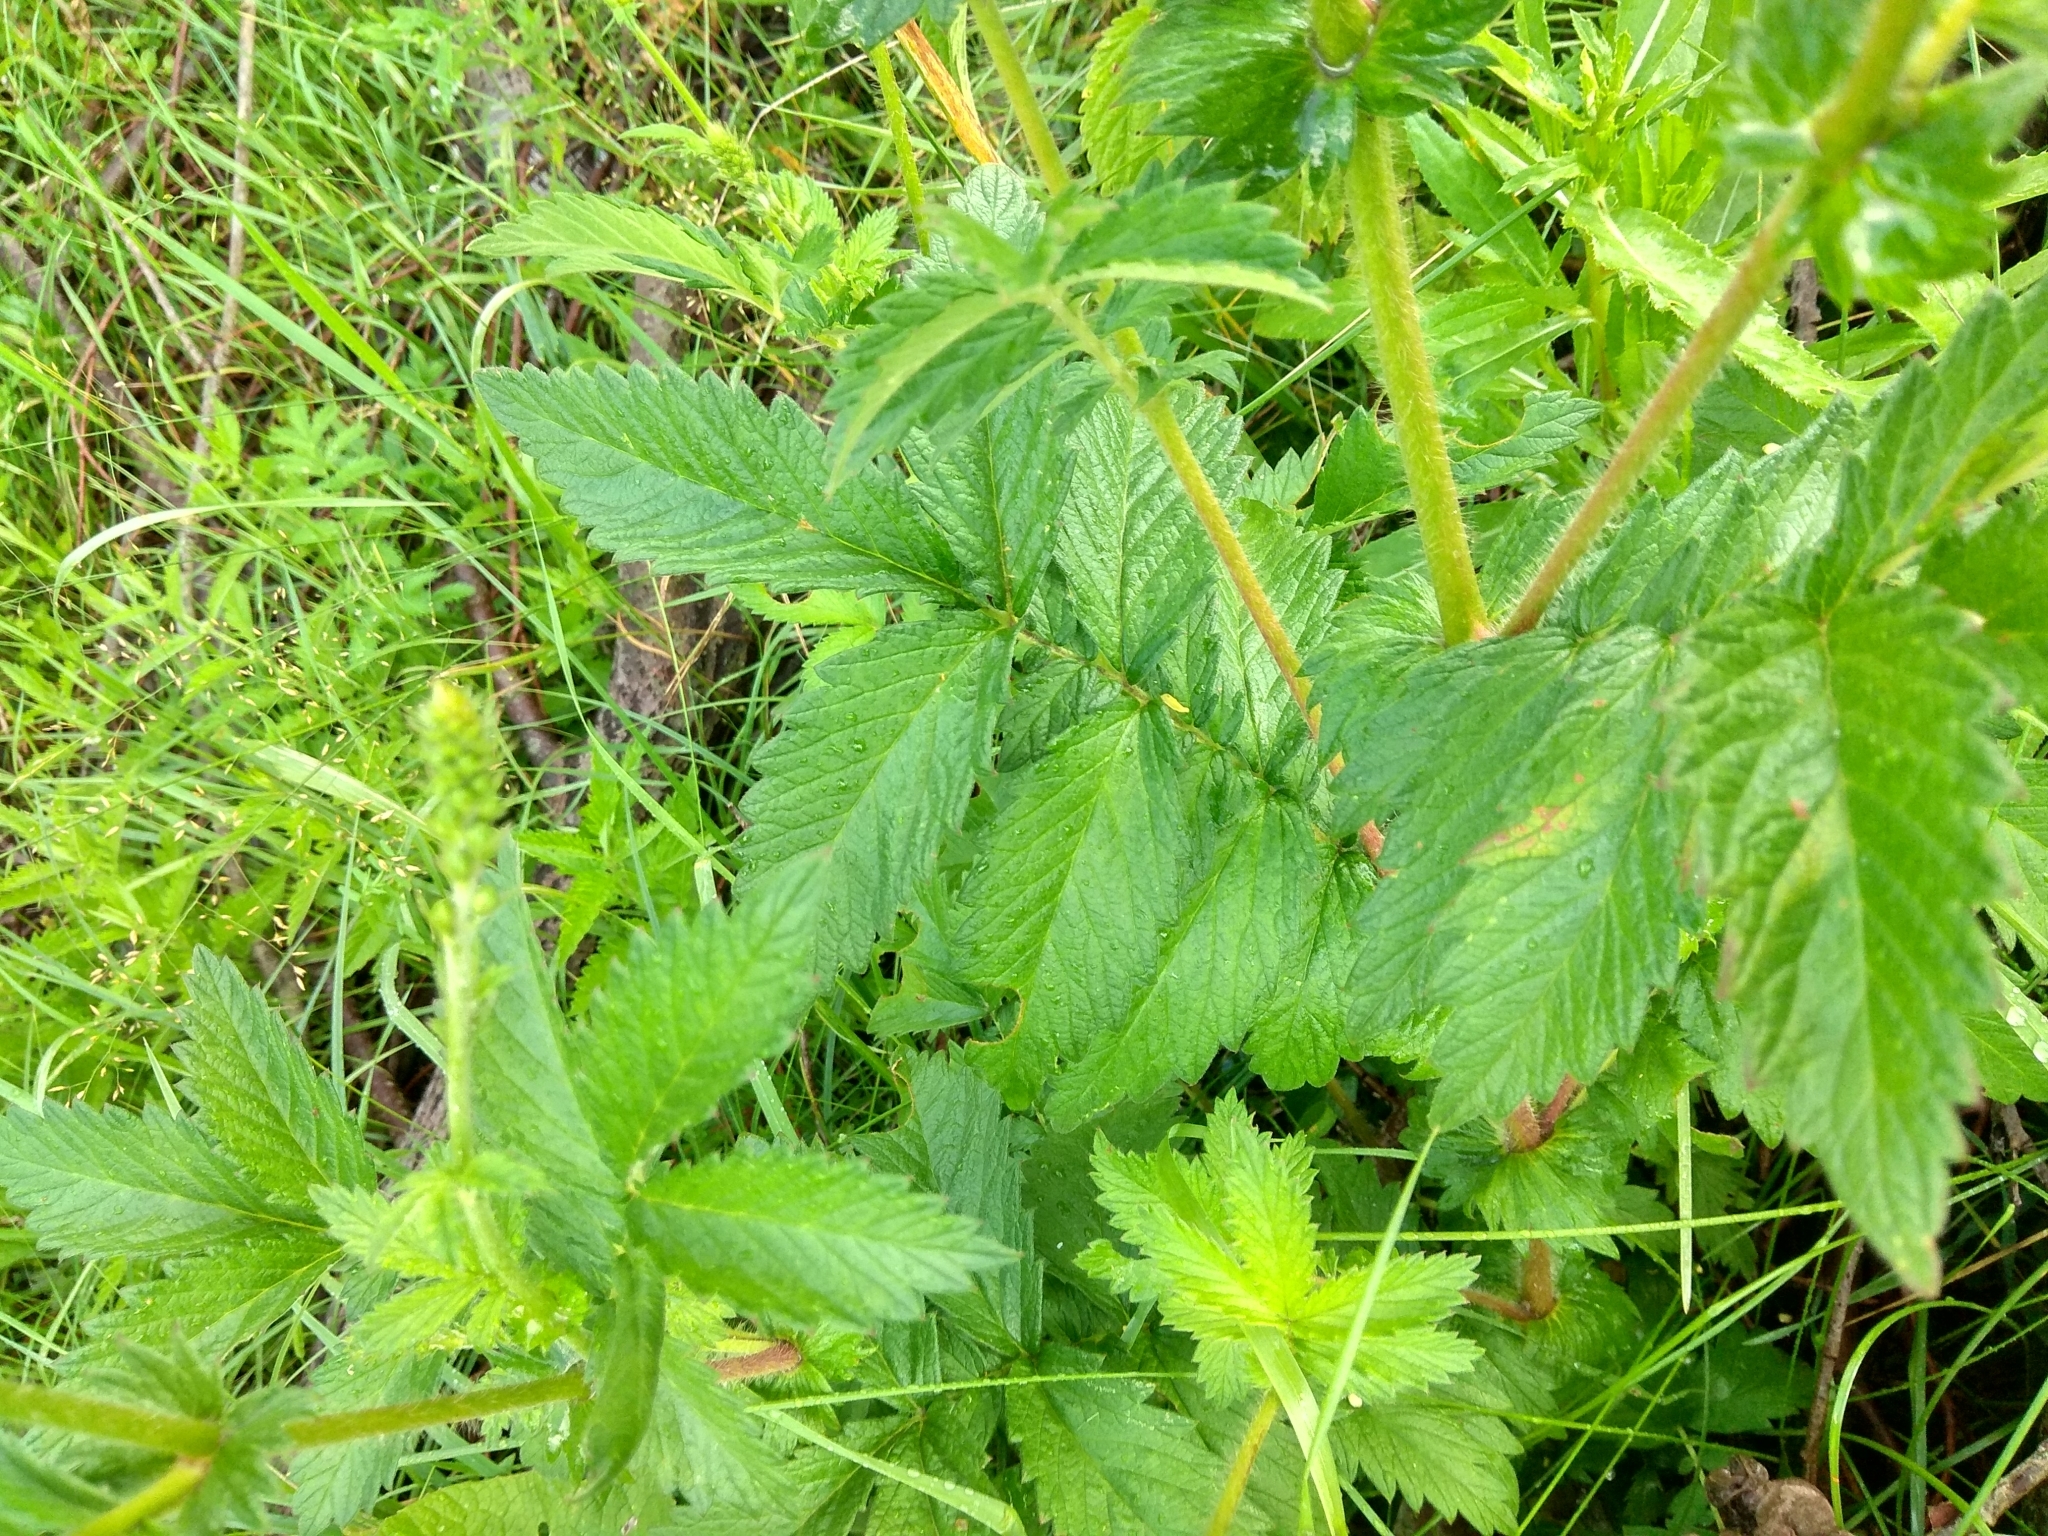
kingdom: Plantae
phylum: Tracheophyta
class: Magnoliopsida
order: Rosales
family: Rosaceae
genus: Agrimonia
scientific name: Agrimonia eupatoria
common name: Agrimony
